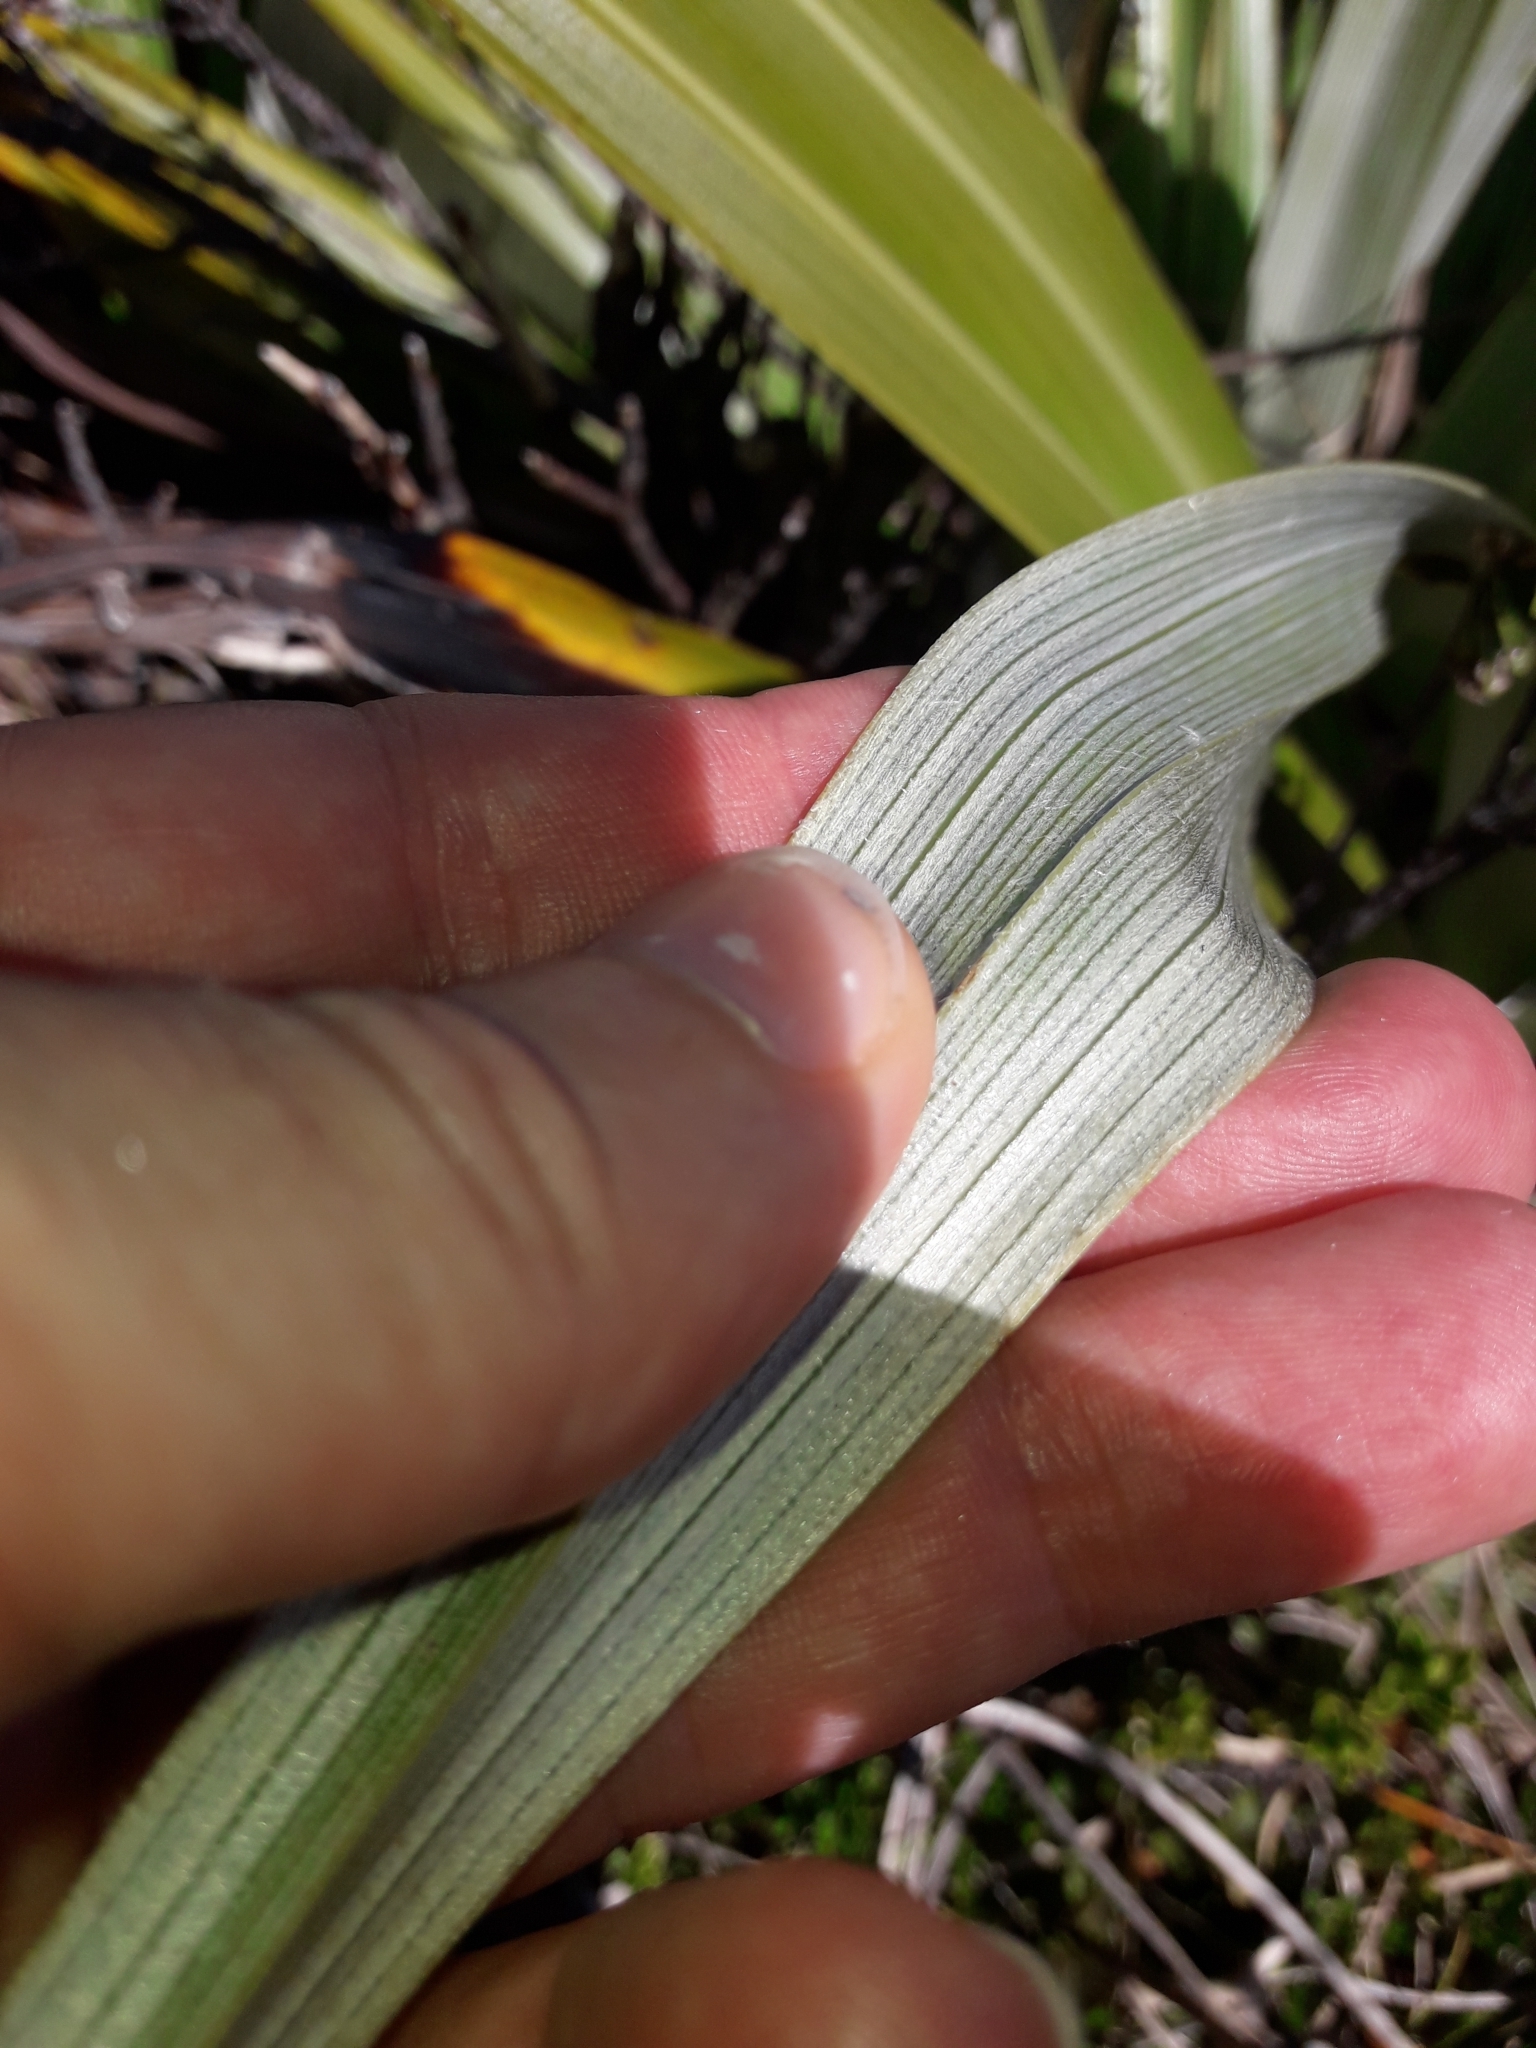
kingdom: Plantae
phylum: Tracheophyta
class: Liliopsida
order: Asparagales
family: Asteliaceae
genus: Astelia
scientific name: Astelia petriei
